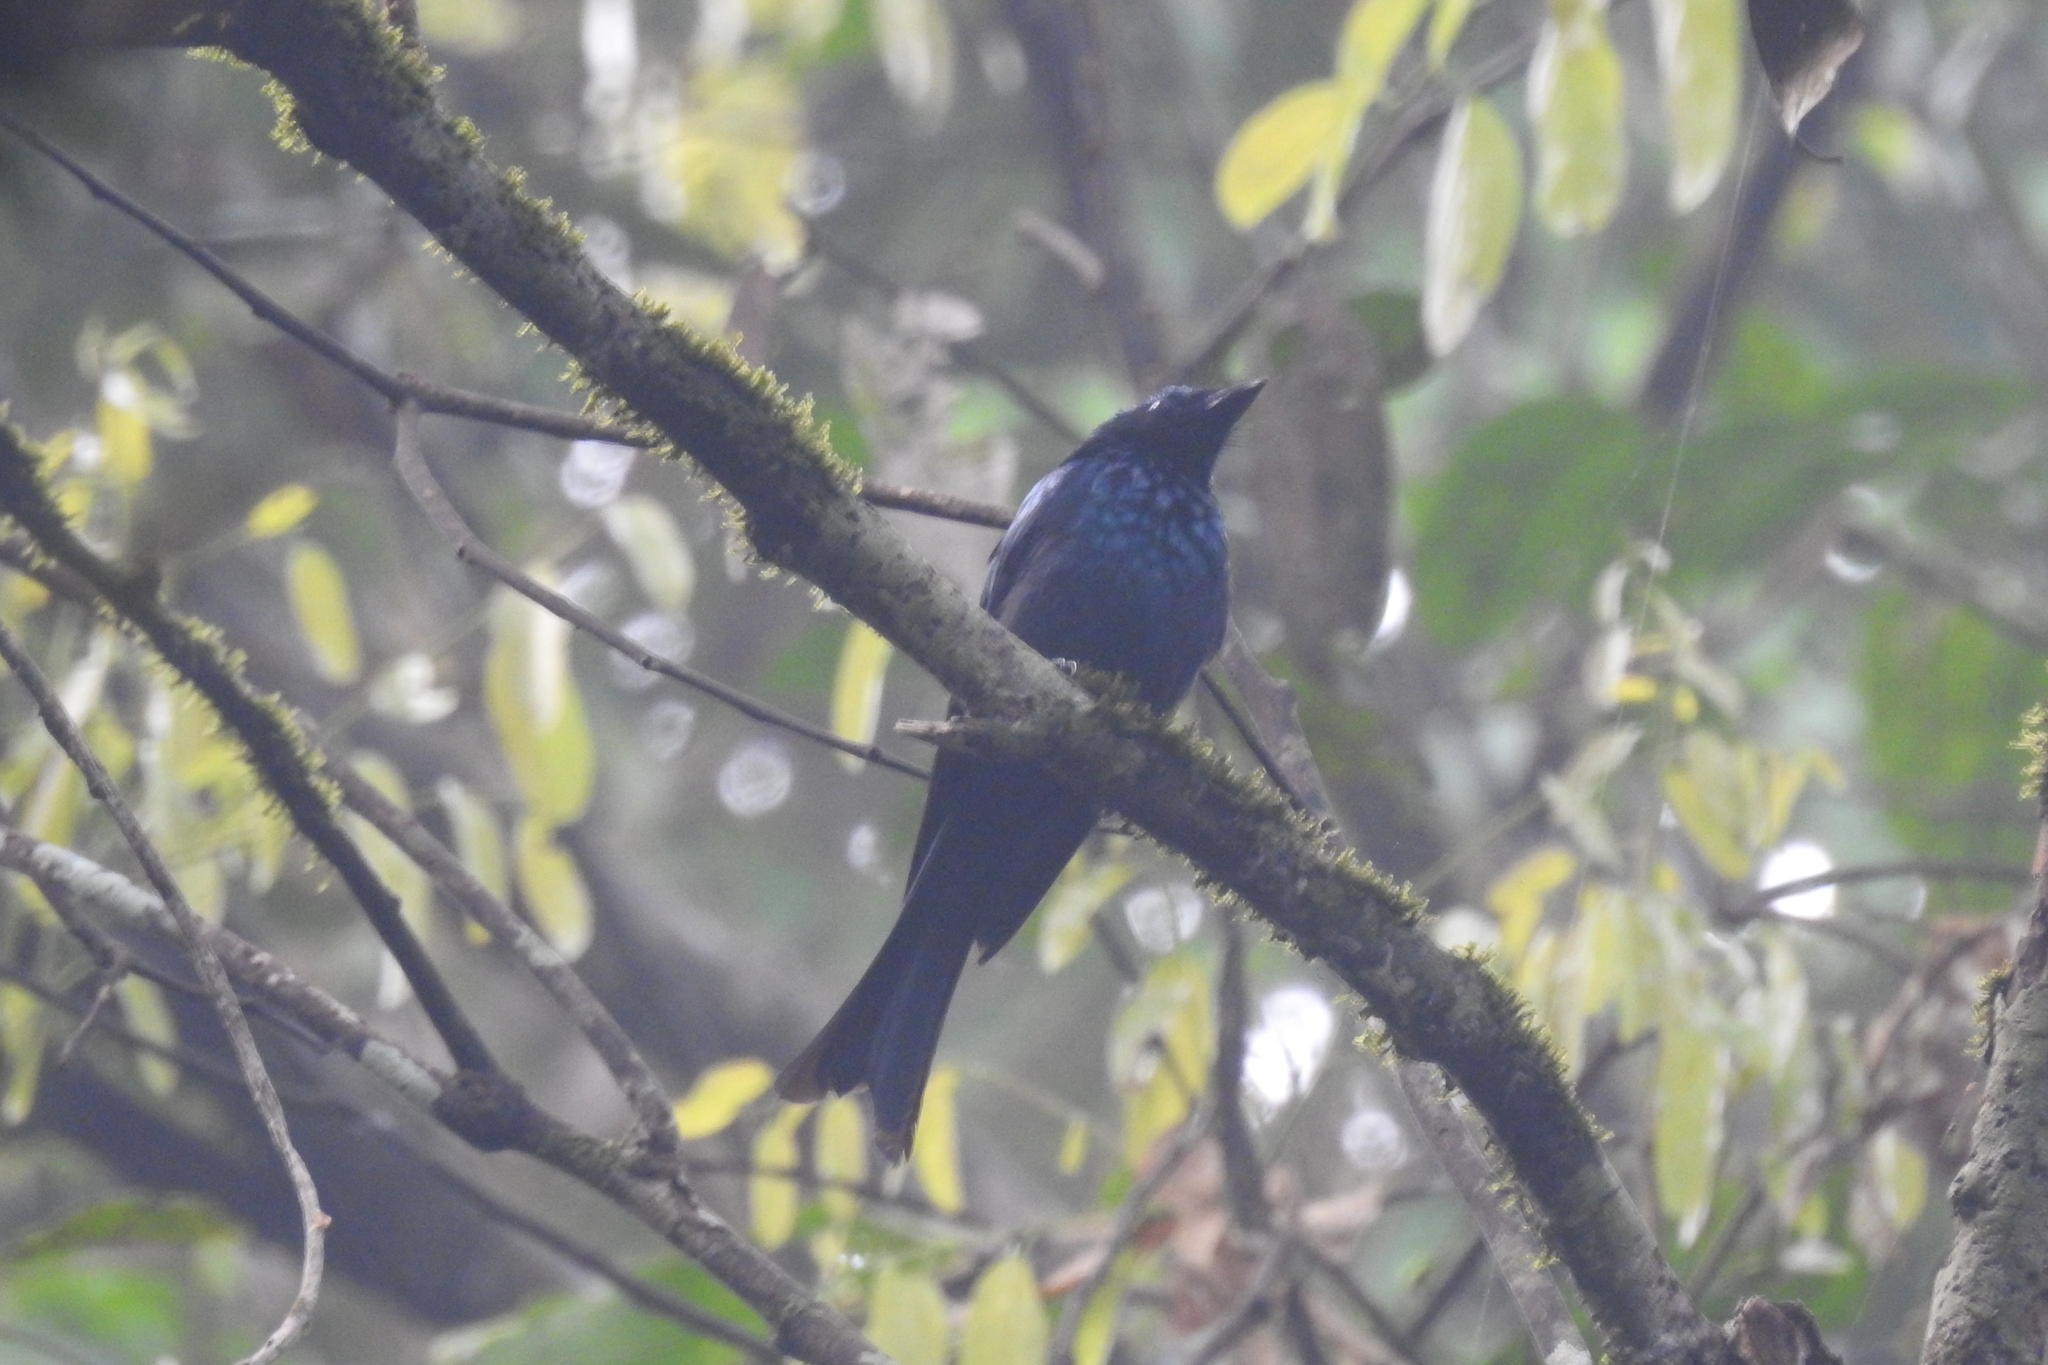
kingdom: Animalia
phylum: Chordata
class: Aves
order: Passeriformes
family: Dicruridae
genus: Dicrurus
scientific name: Dicrurus aeneus
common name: Bronzed drongo
